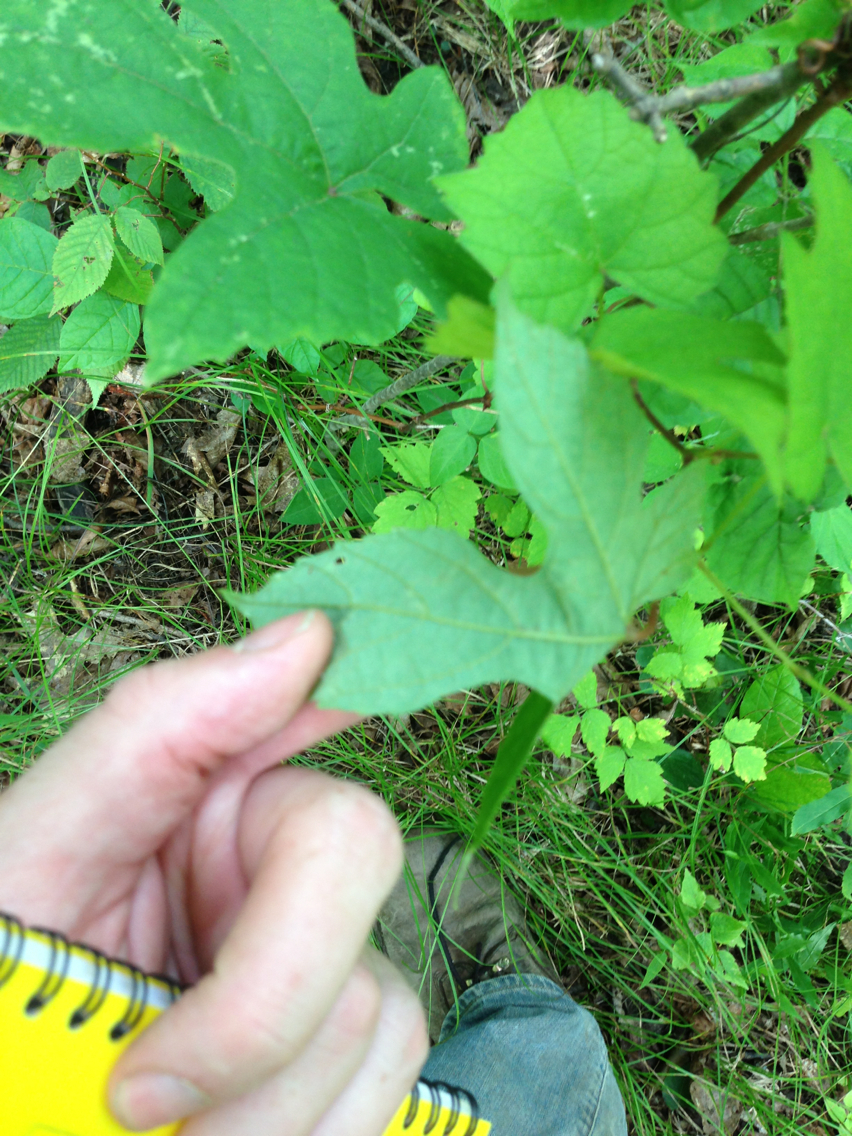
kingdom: Plantae
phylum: Tracheophyta
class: Magnoliopsida
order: Vitales
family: Vitaceae
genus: Vitis
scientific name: Vitis aestivalis
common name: Pigeon grape
